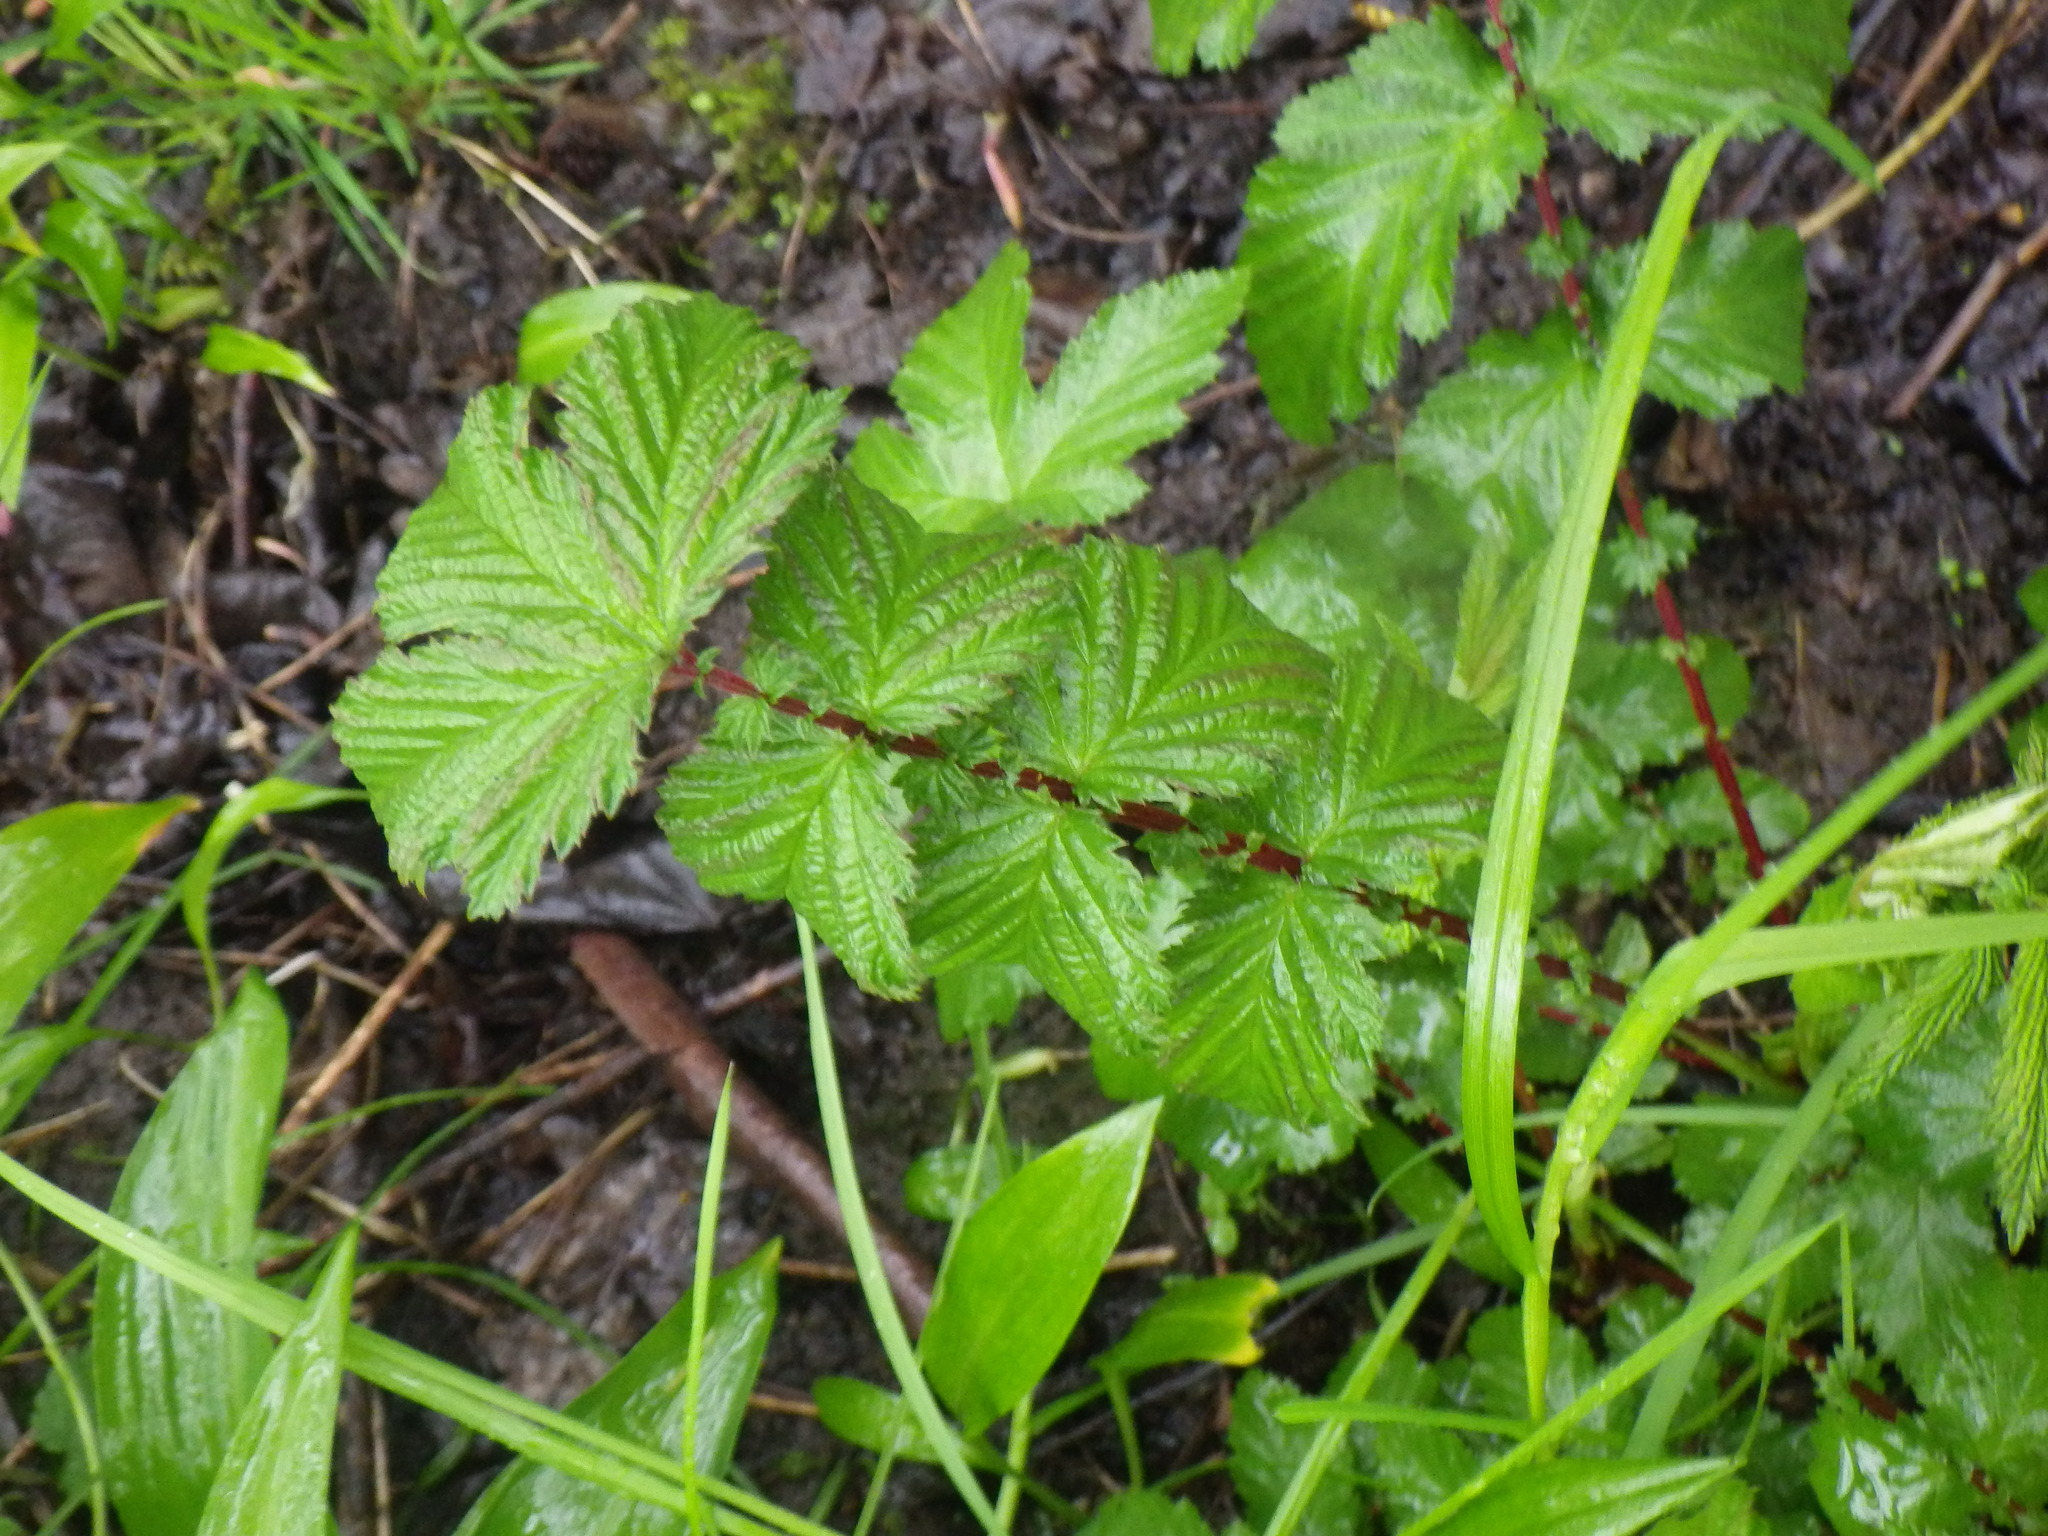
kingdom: Plantae
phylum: Tracheophyta
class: Magnoliopsida
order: Rosales
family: Rosaceae
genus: Filipendula
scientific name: Filipendula ulmaria
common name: Meadowsweet
